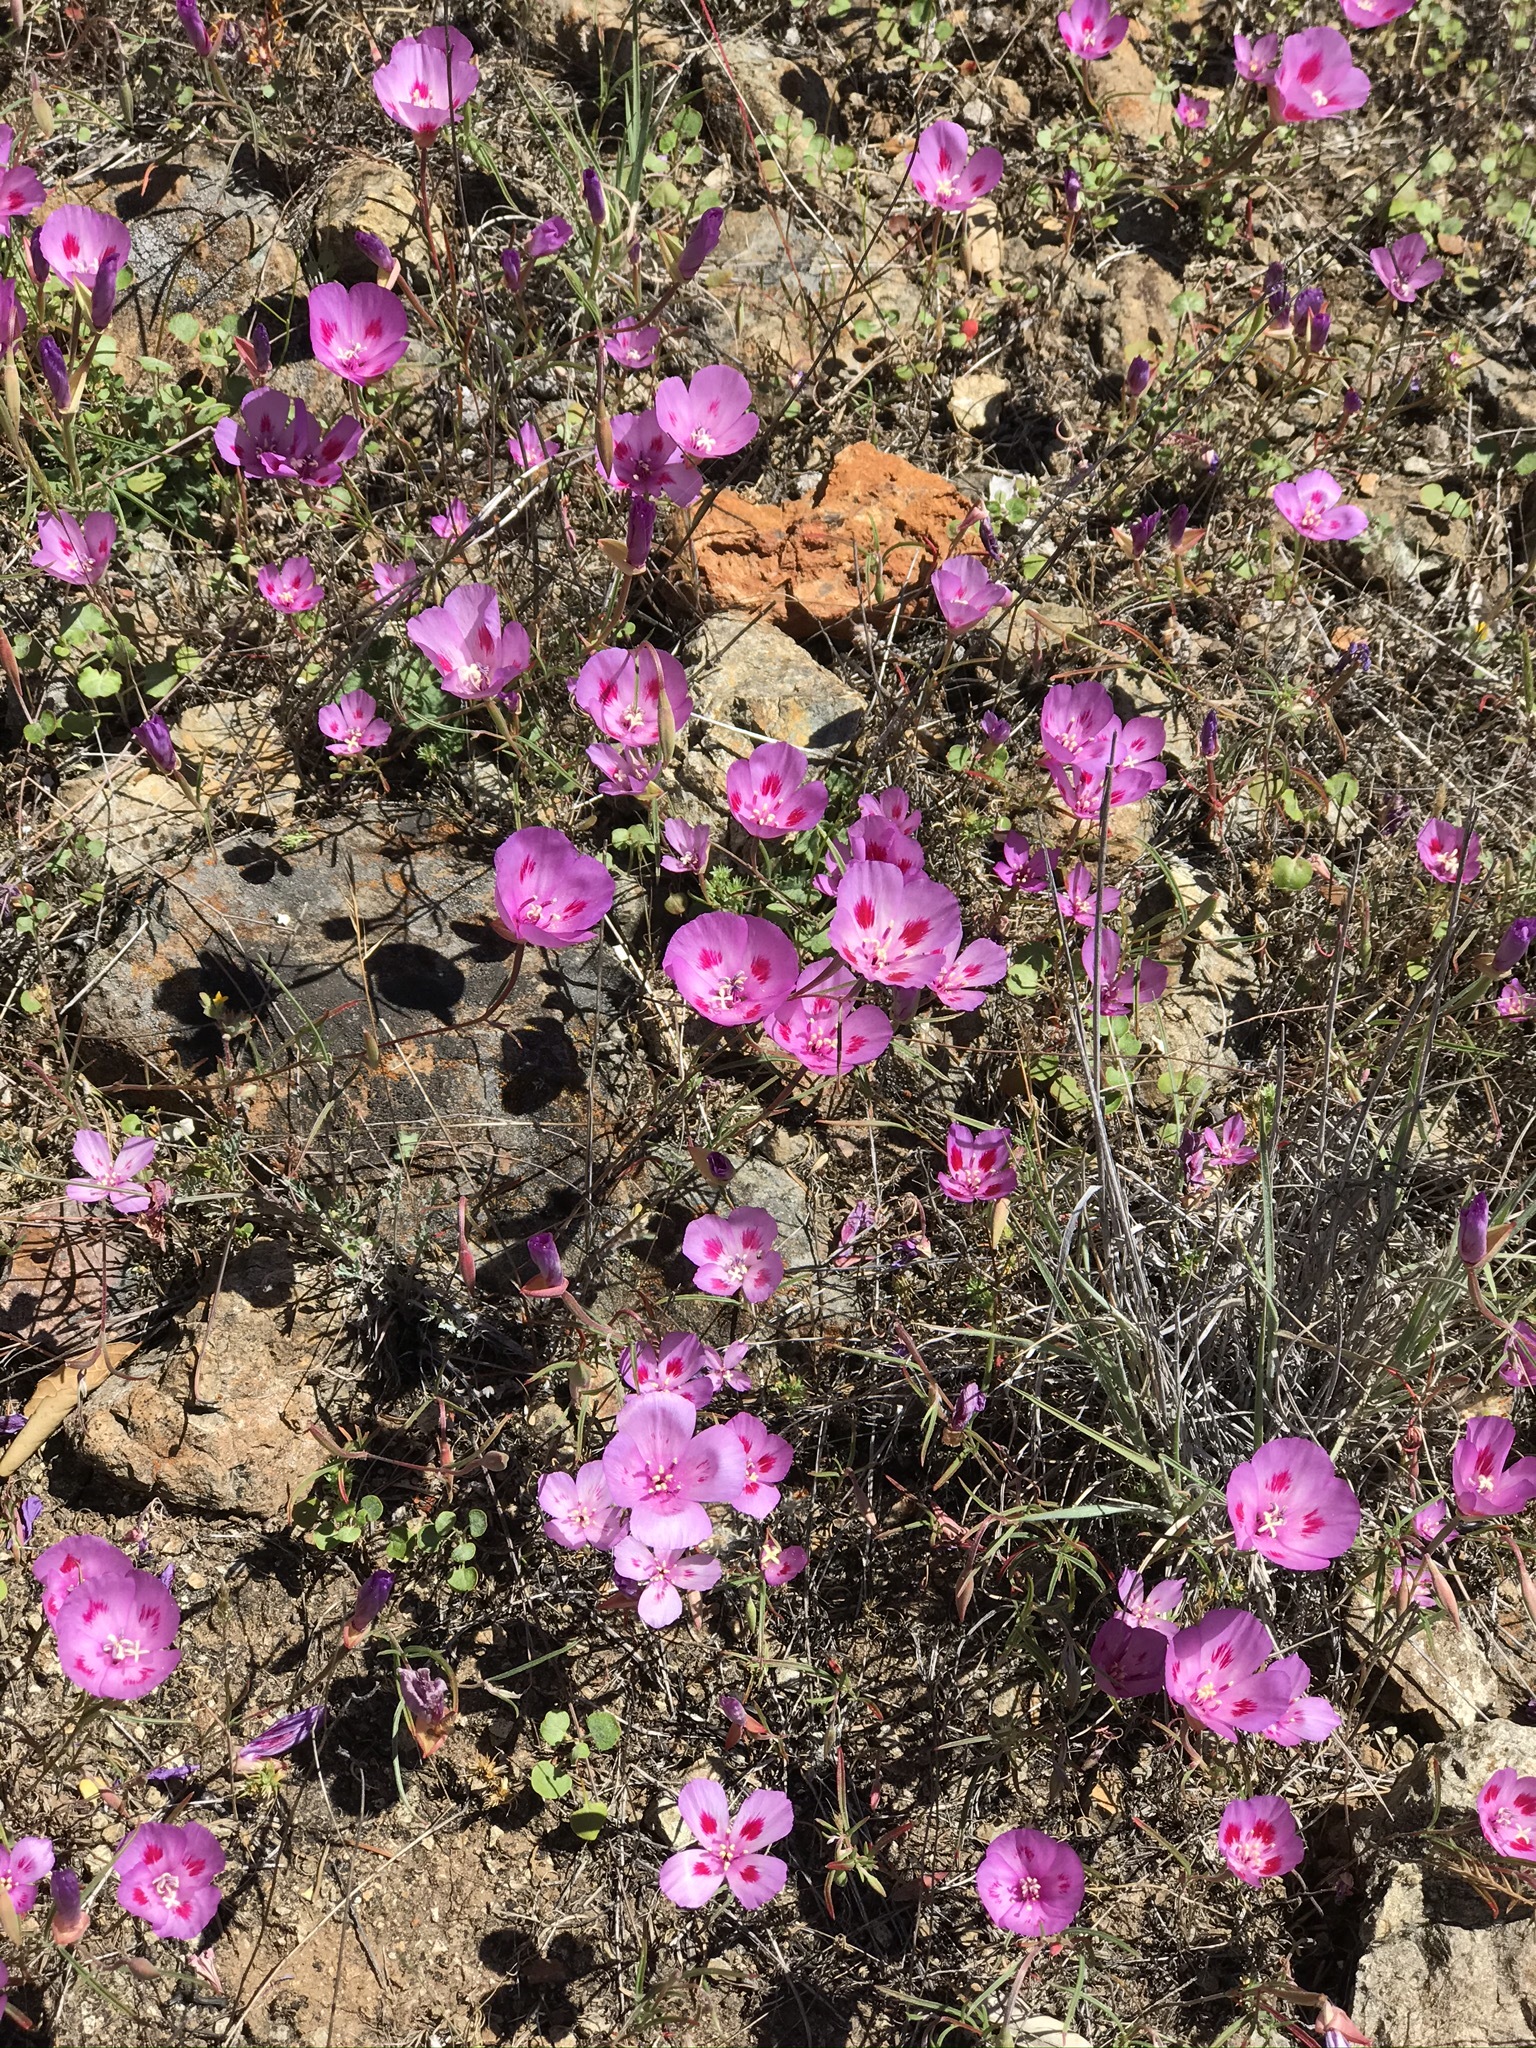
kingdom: Plantae
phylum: Tracheophyta
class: Magnoliopsida
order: Myrtales
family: Onagraceae
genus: Clarkia
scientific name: Clarkia gracilis
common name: Graceful clarkia
